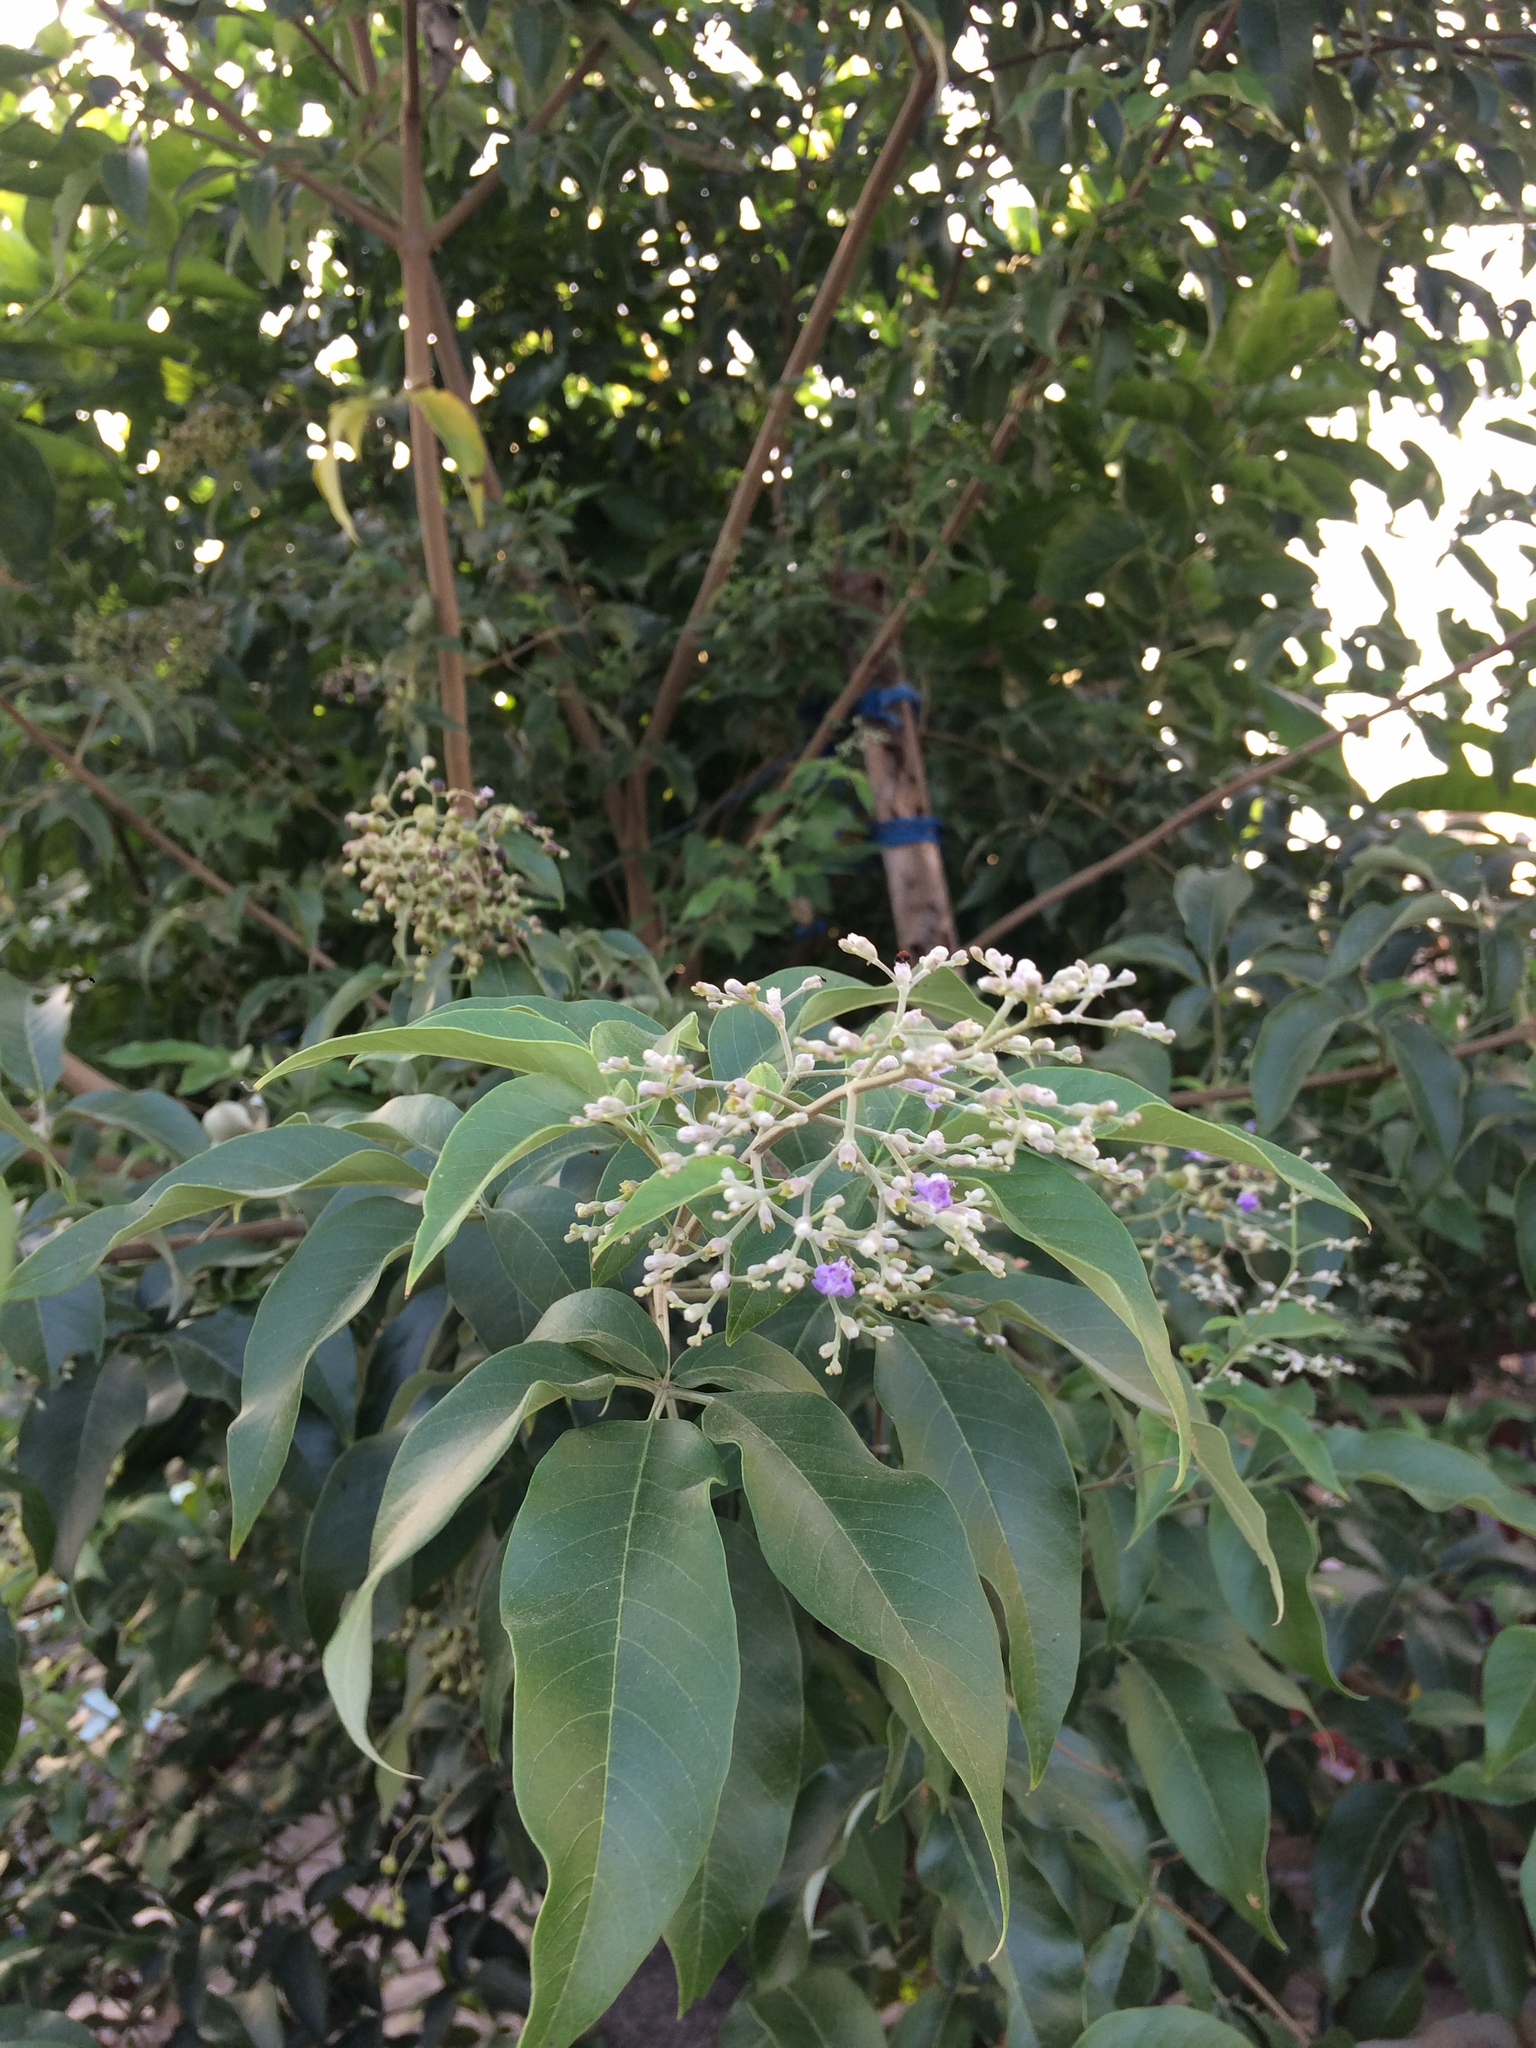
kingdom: Plantae
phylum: Tracheophyta
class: Magnoliopsida
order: Lamiales
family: Lamiaceae
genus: Vitex
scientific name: Vitex negundo
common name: Chinese chastetree
